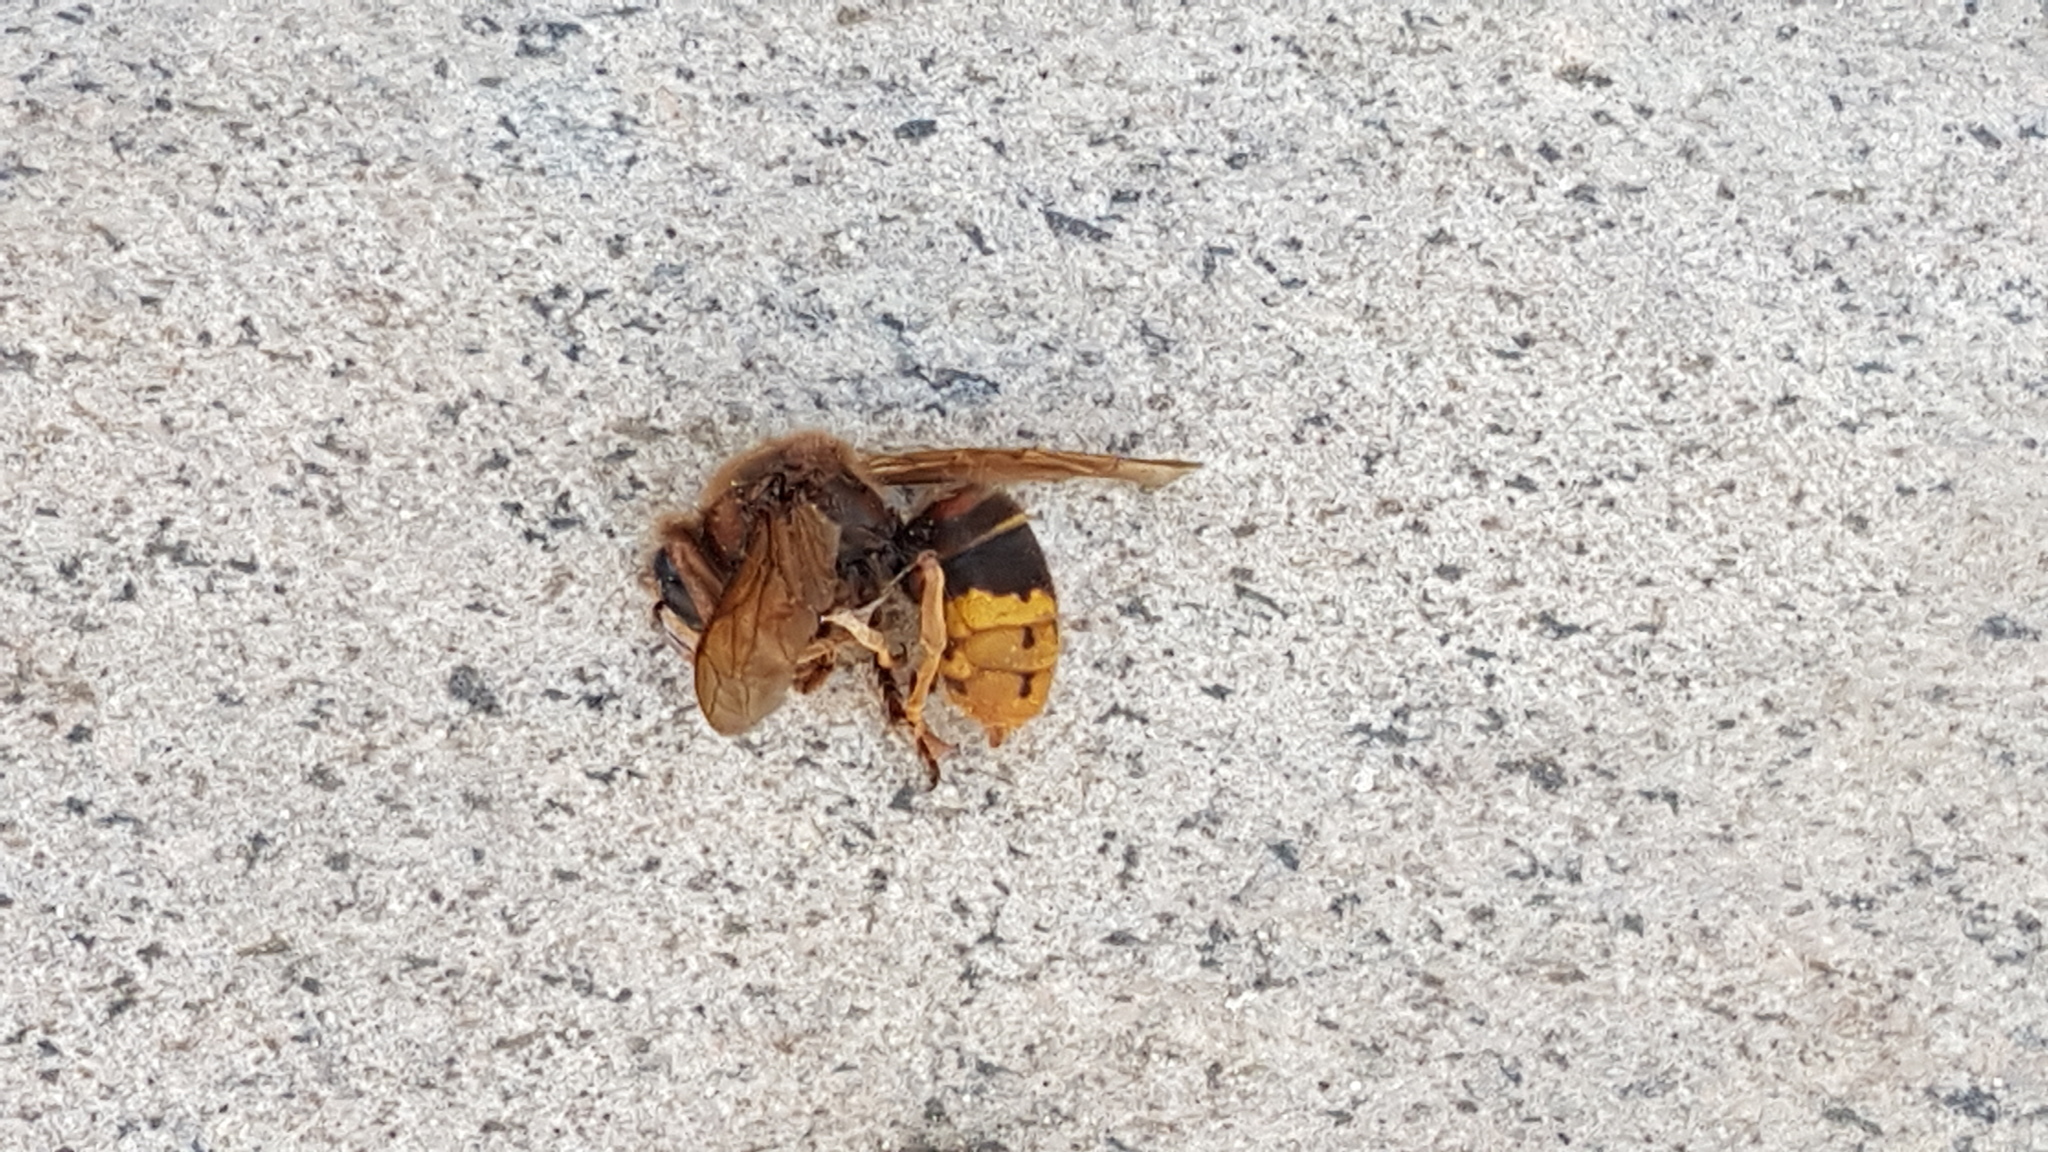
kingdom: Animalia
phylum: Arthropoda
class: Insecta
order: Hymenoptera
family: Vespidae
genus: Vespa
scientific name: Vespa crabro
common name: Hornet
